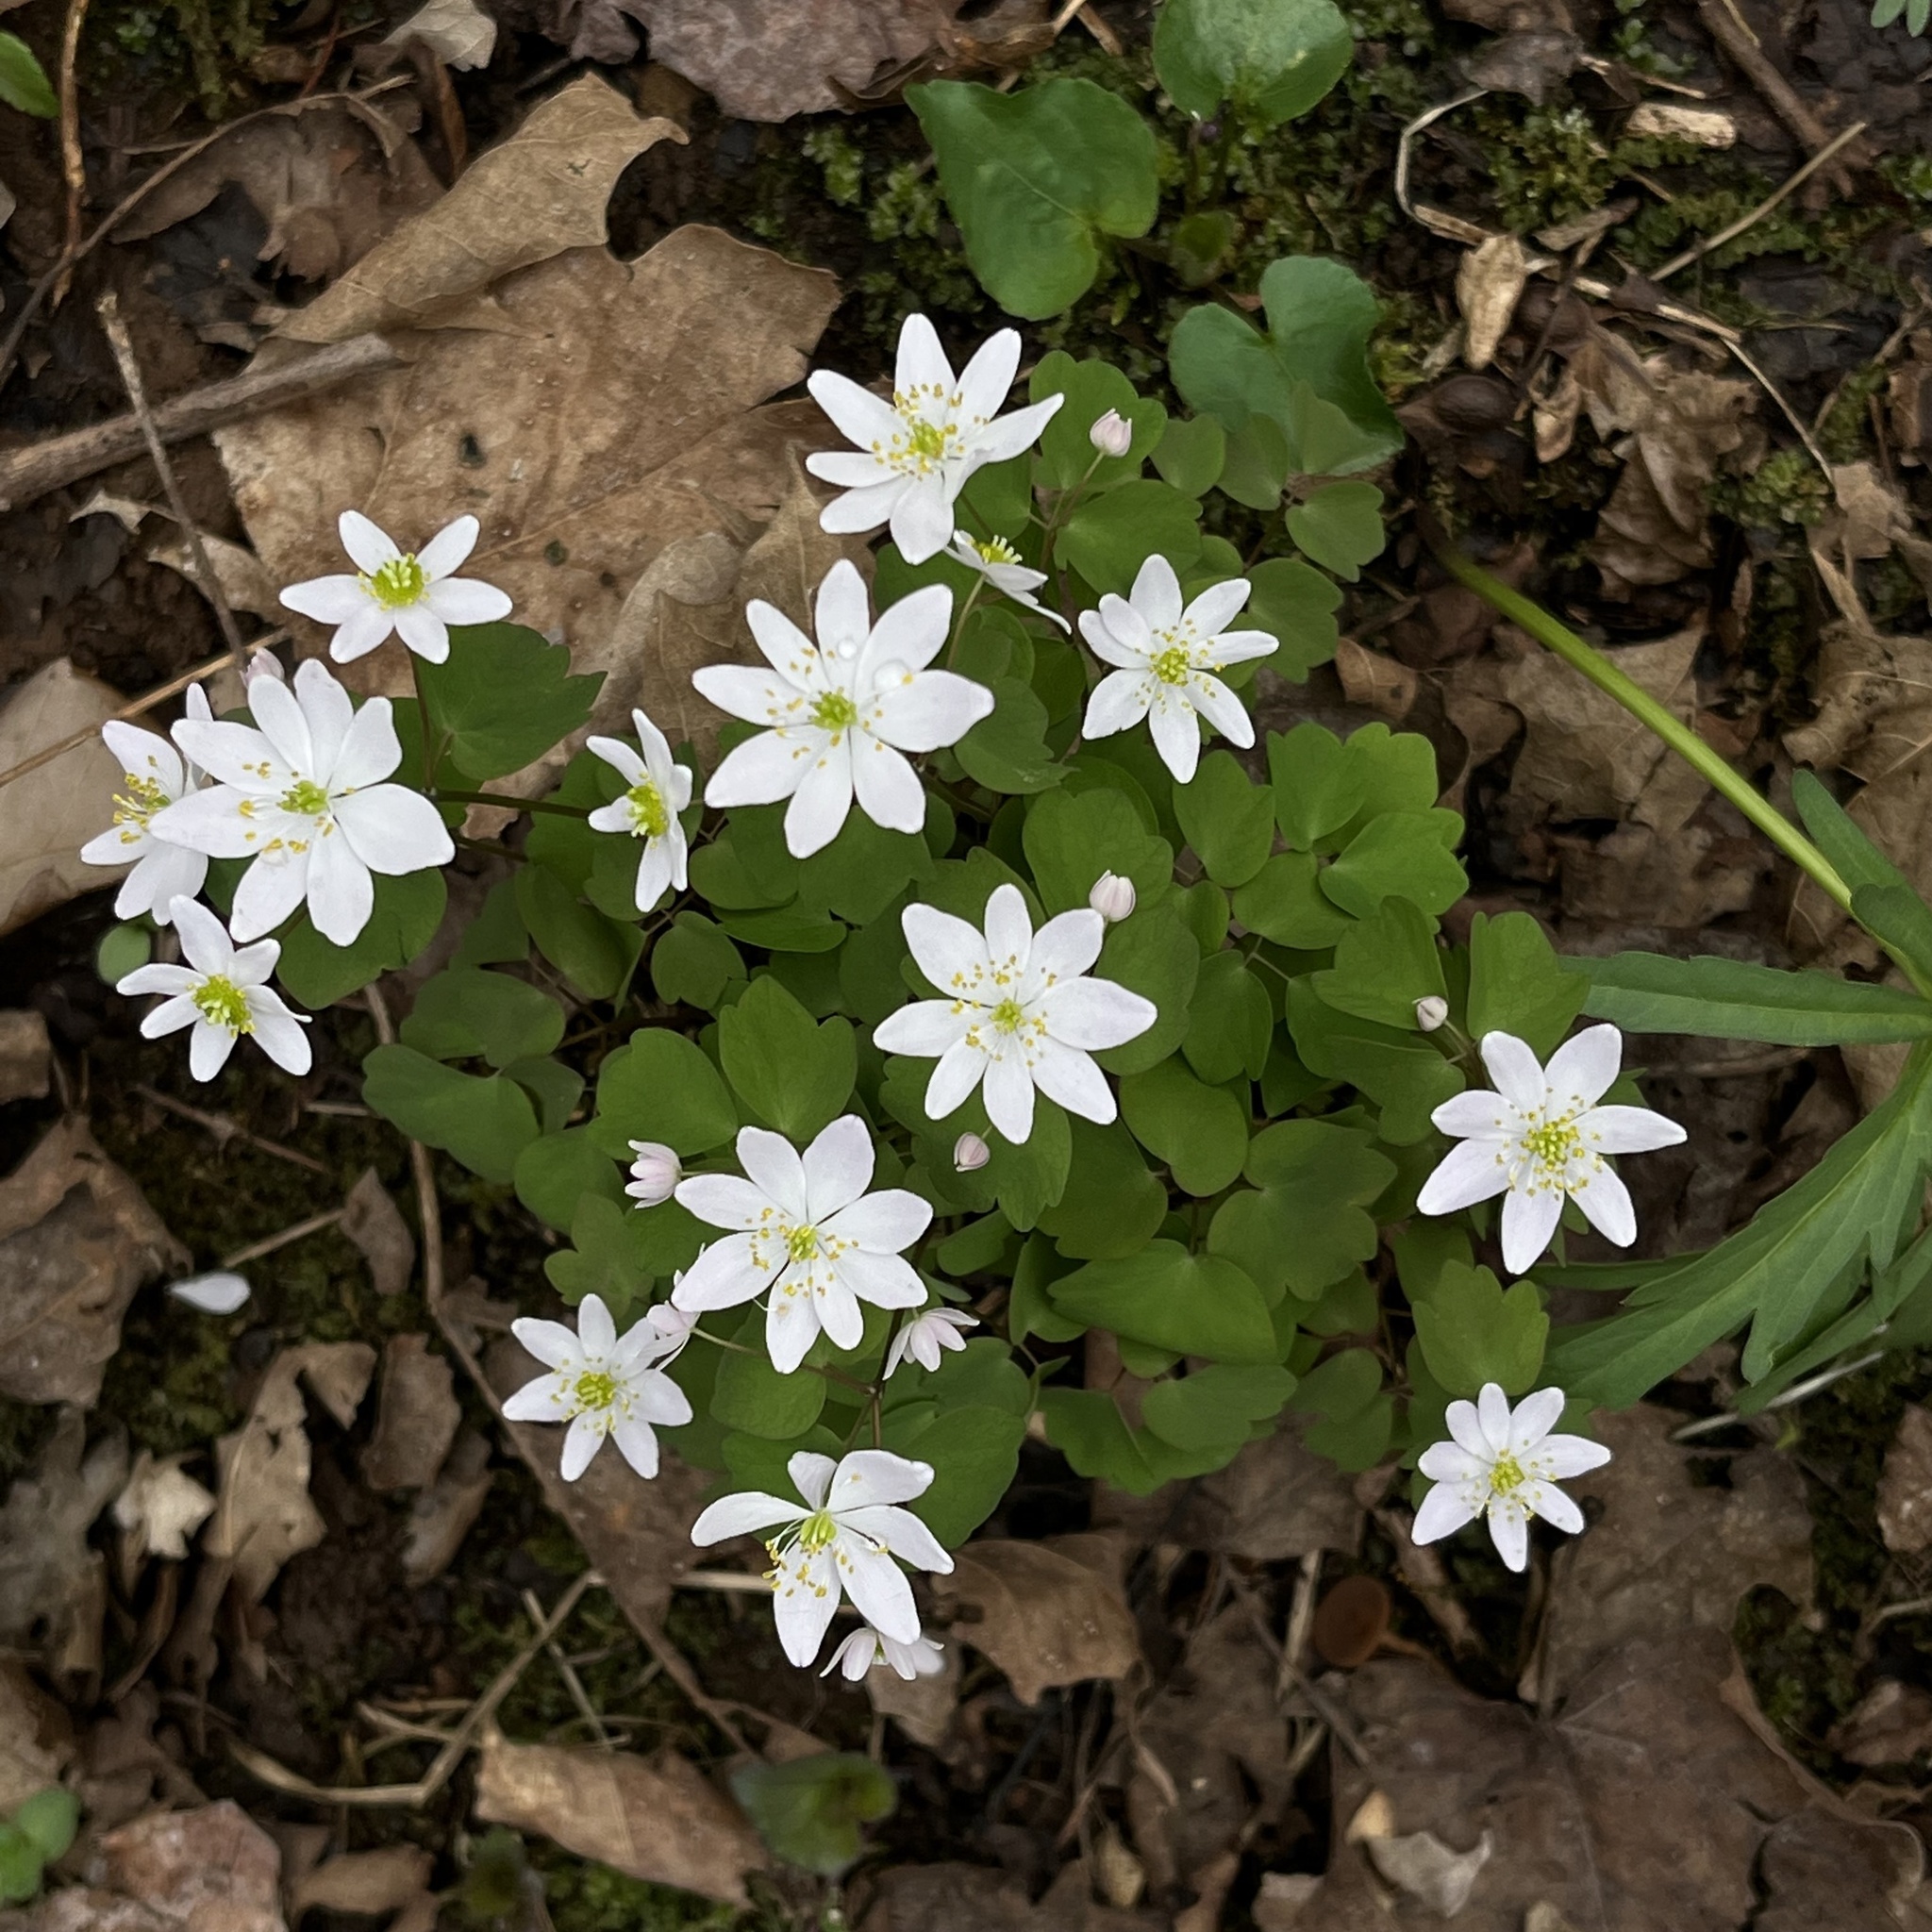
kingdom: Plantae
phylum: Tracheophyta
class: Magnoliopsida
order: Ranunculales
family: Ranunculaceae
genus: Thalictrum
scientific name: Thalictrum thalictroides
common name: Rue-anemone
